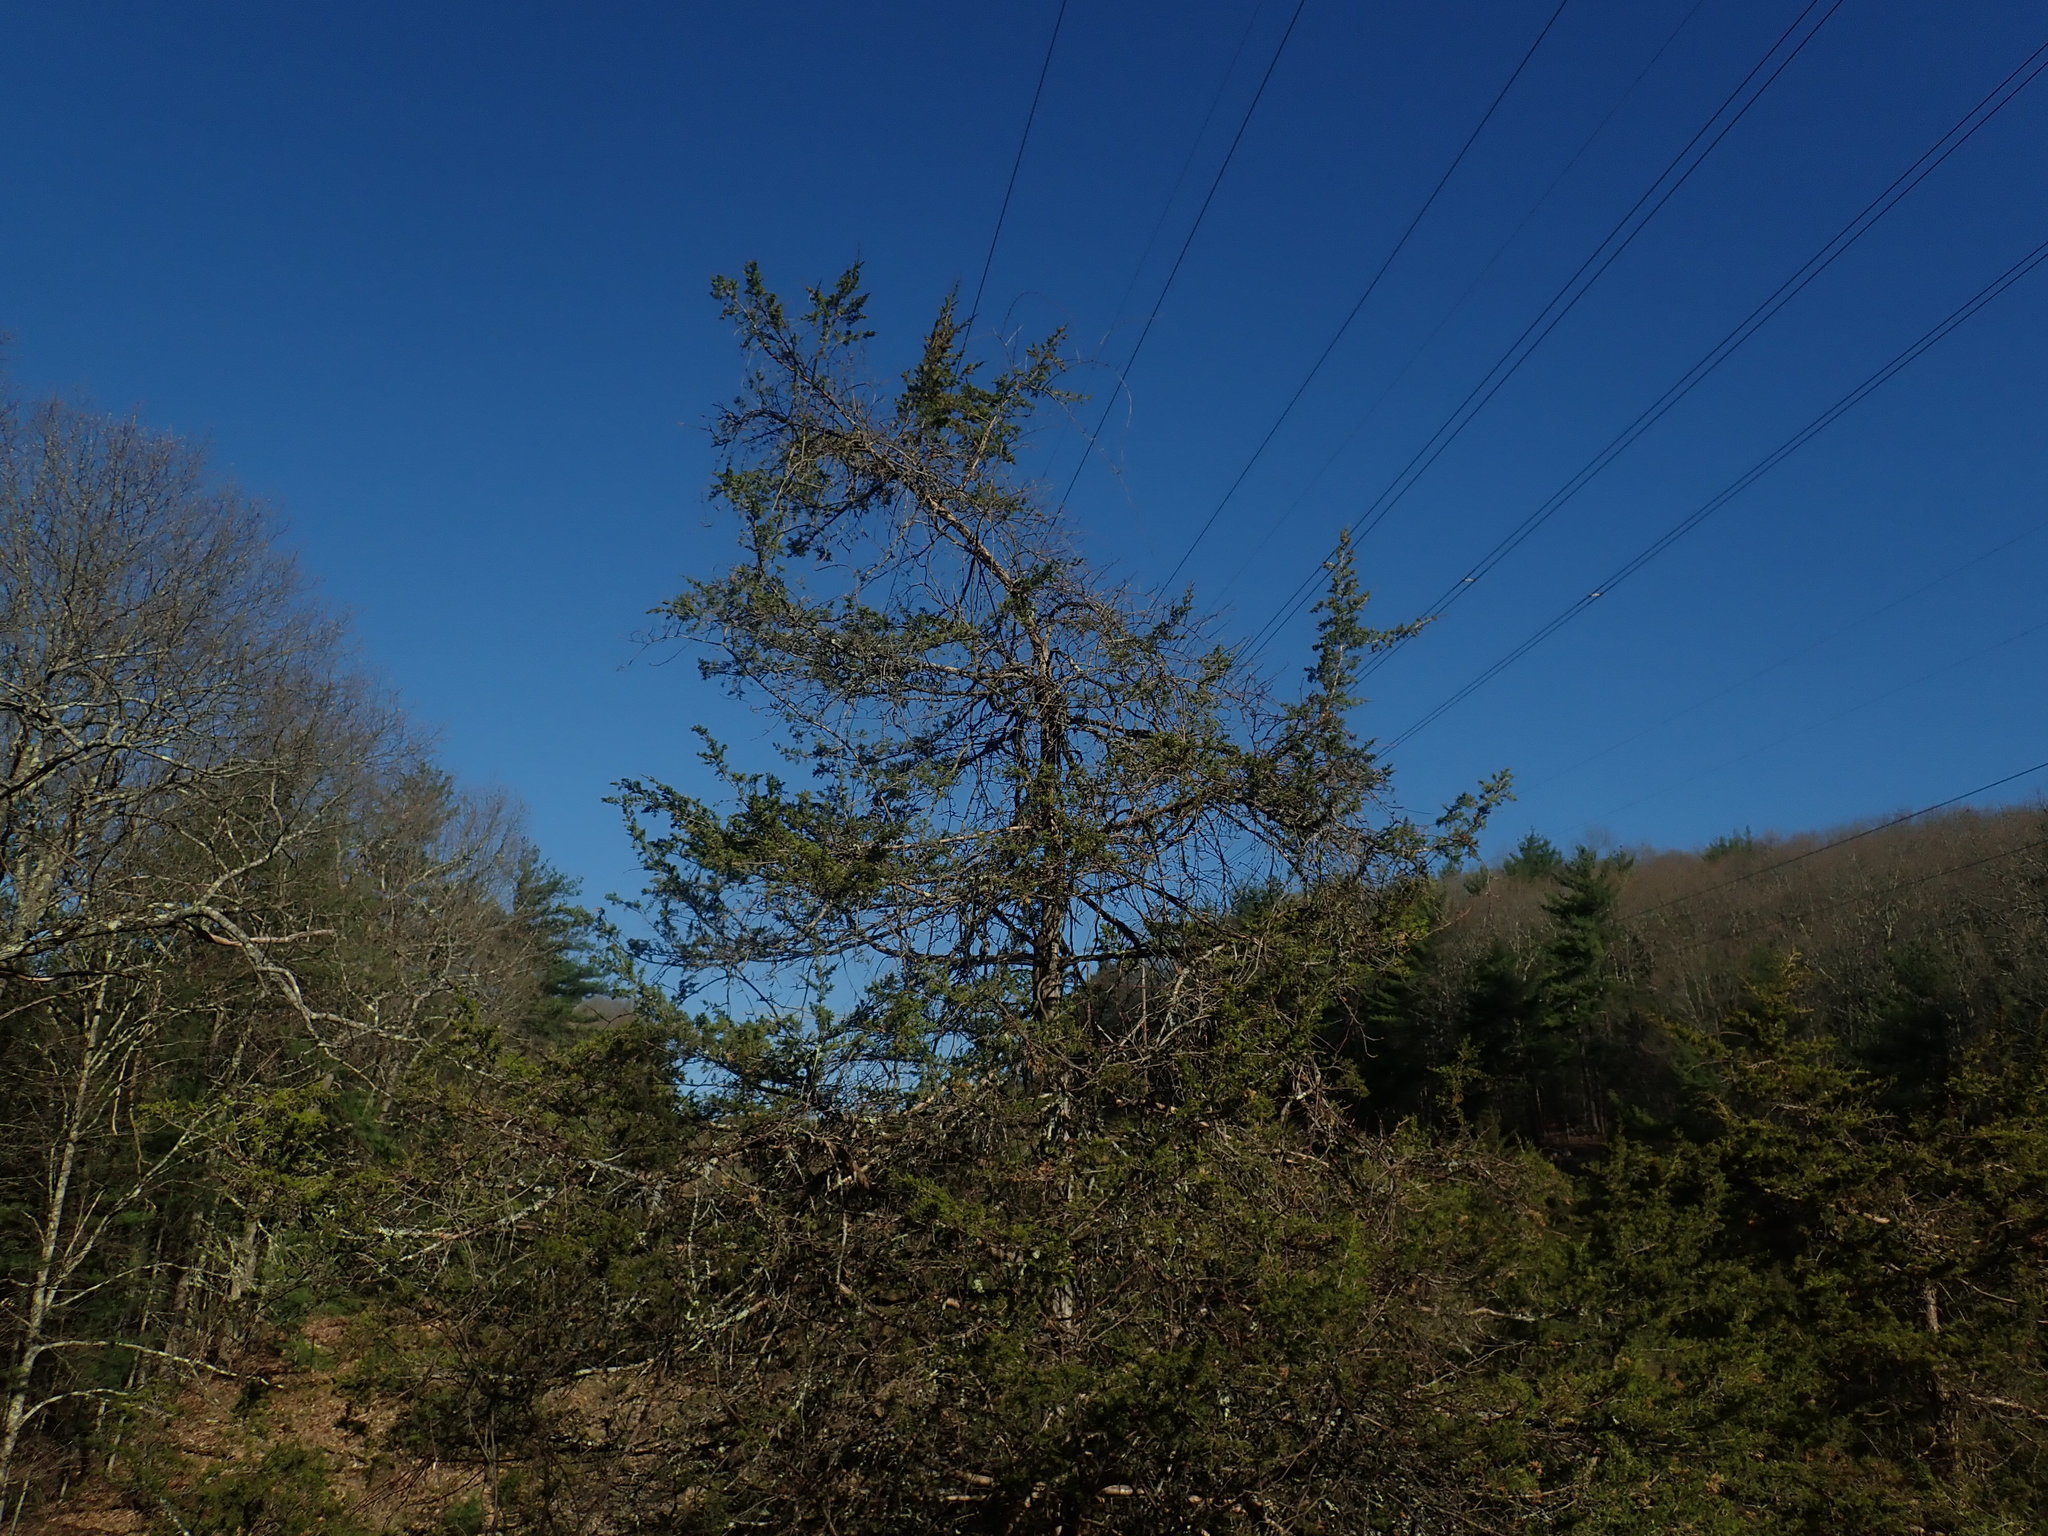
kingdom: Plantae
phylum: Tracheophyta
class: Pinopsida
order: Pinales
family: Cupressaceae
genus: Juniperus
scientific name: Juniperus virginiana
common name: Red juniper
